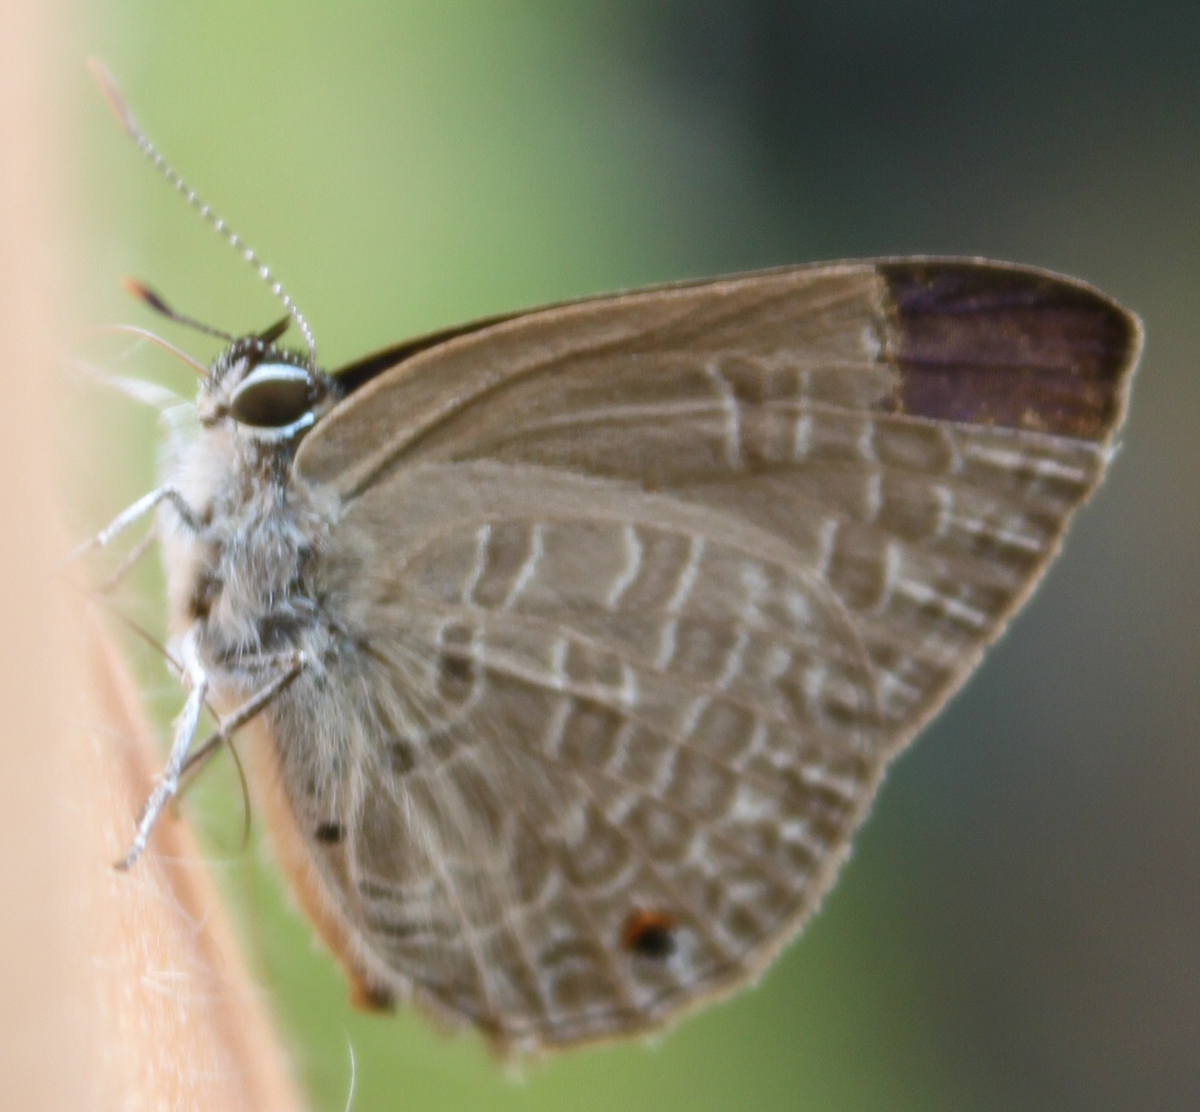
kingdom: Animalia
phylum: Arthropoda
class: Insecta
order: Lepidoptera
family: Lycaenidae
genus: Anthene
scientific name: Anthene emolus
